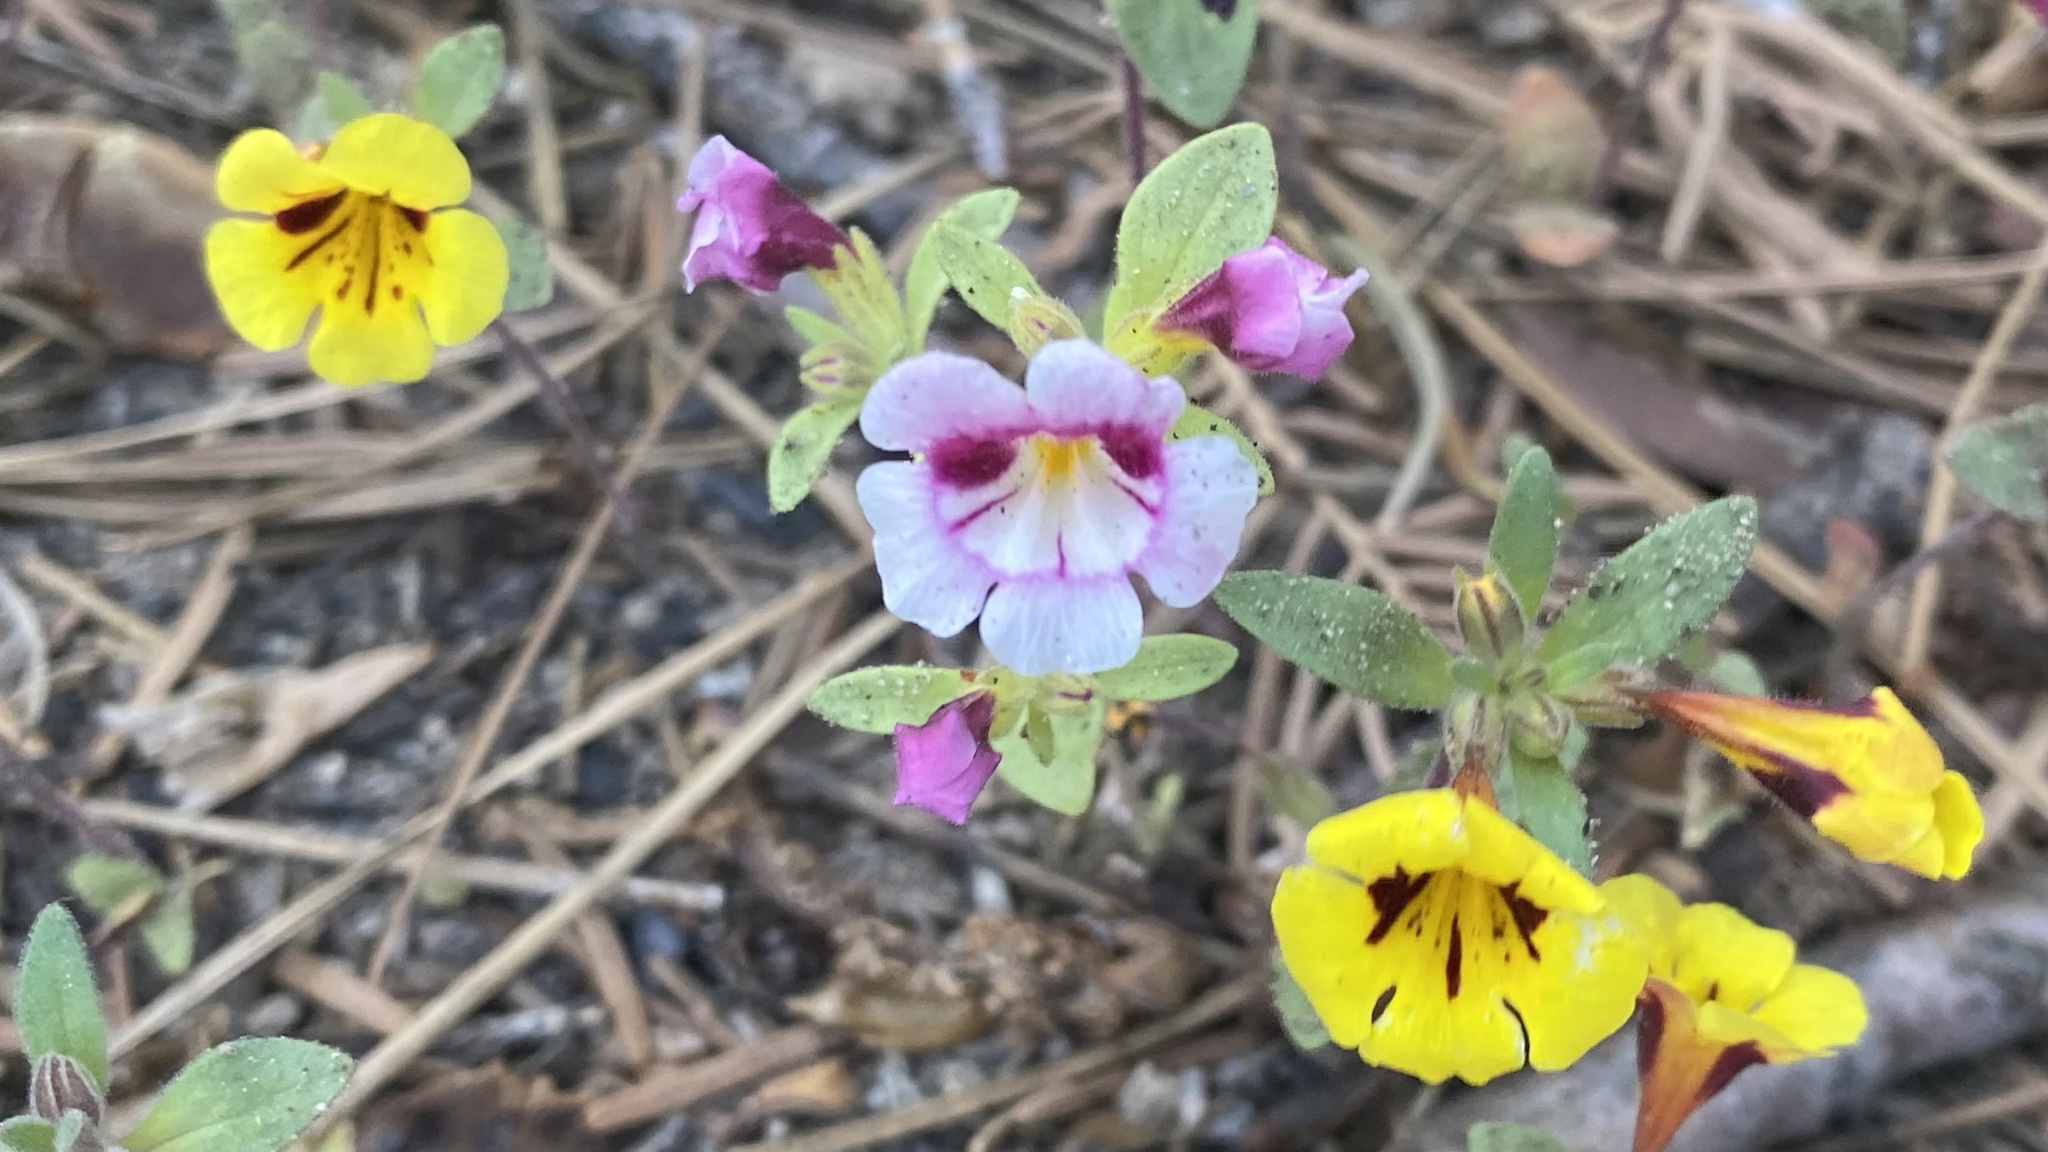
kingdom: Plantae
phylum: Tracheophyta
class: Magnoliopsida
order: Lamiales
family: Phrymaceae
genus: Diplacus
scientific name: Diplacus bicolor
